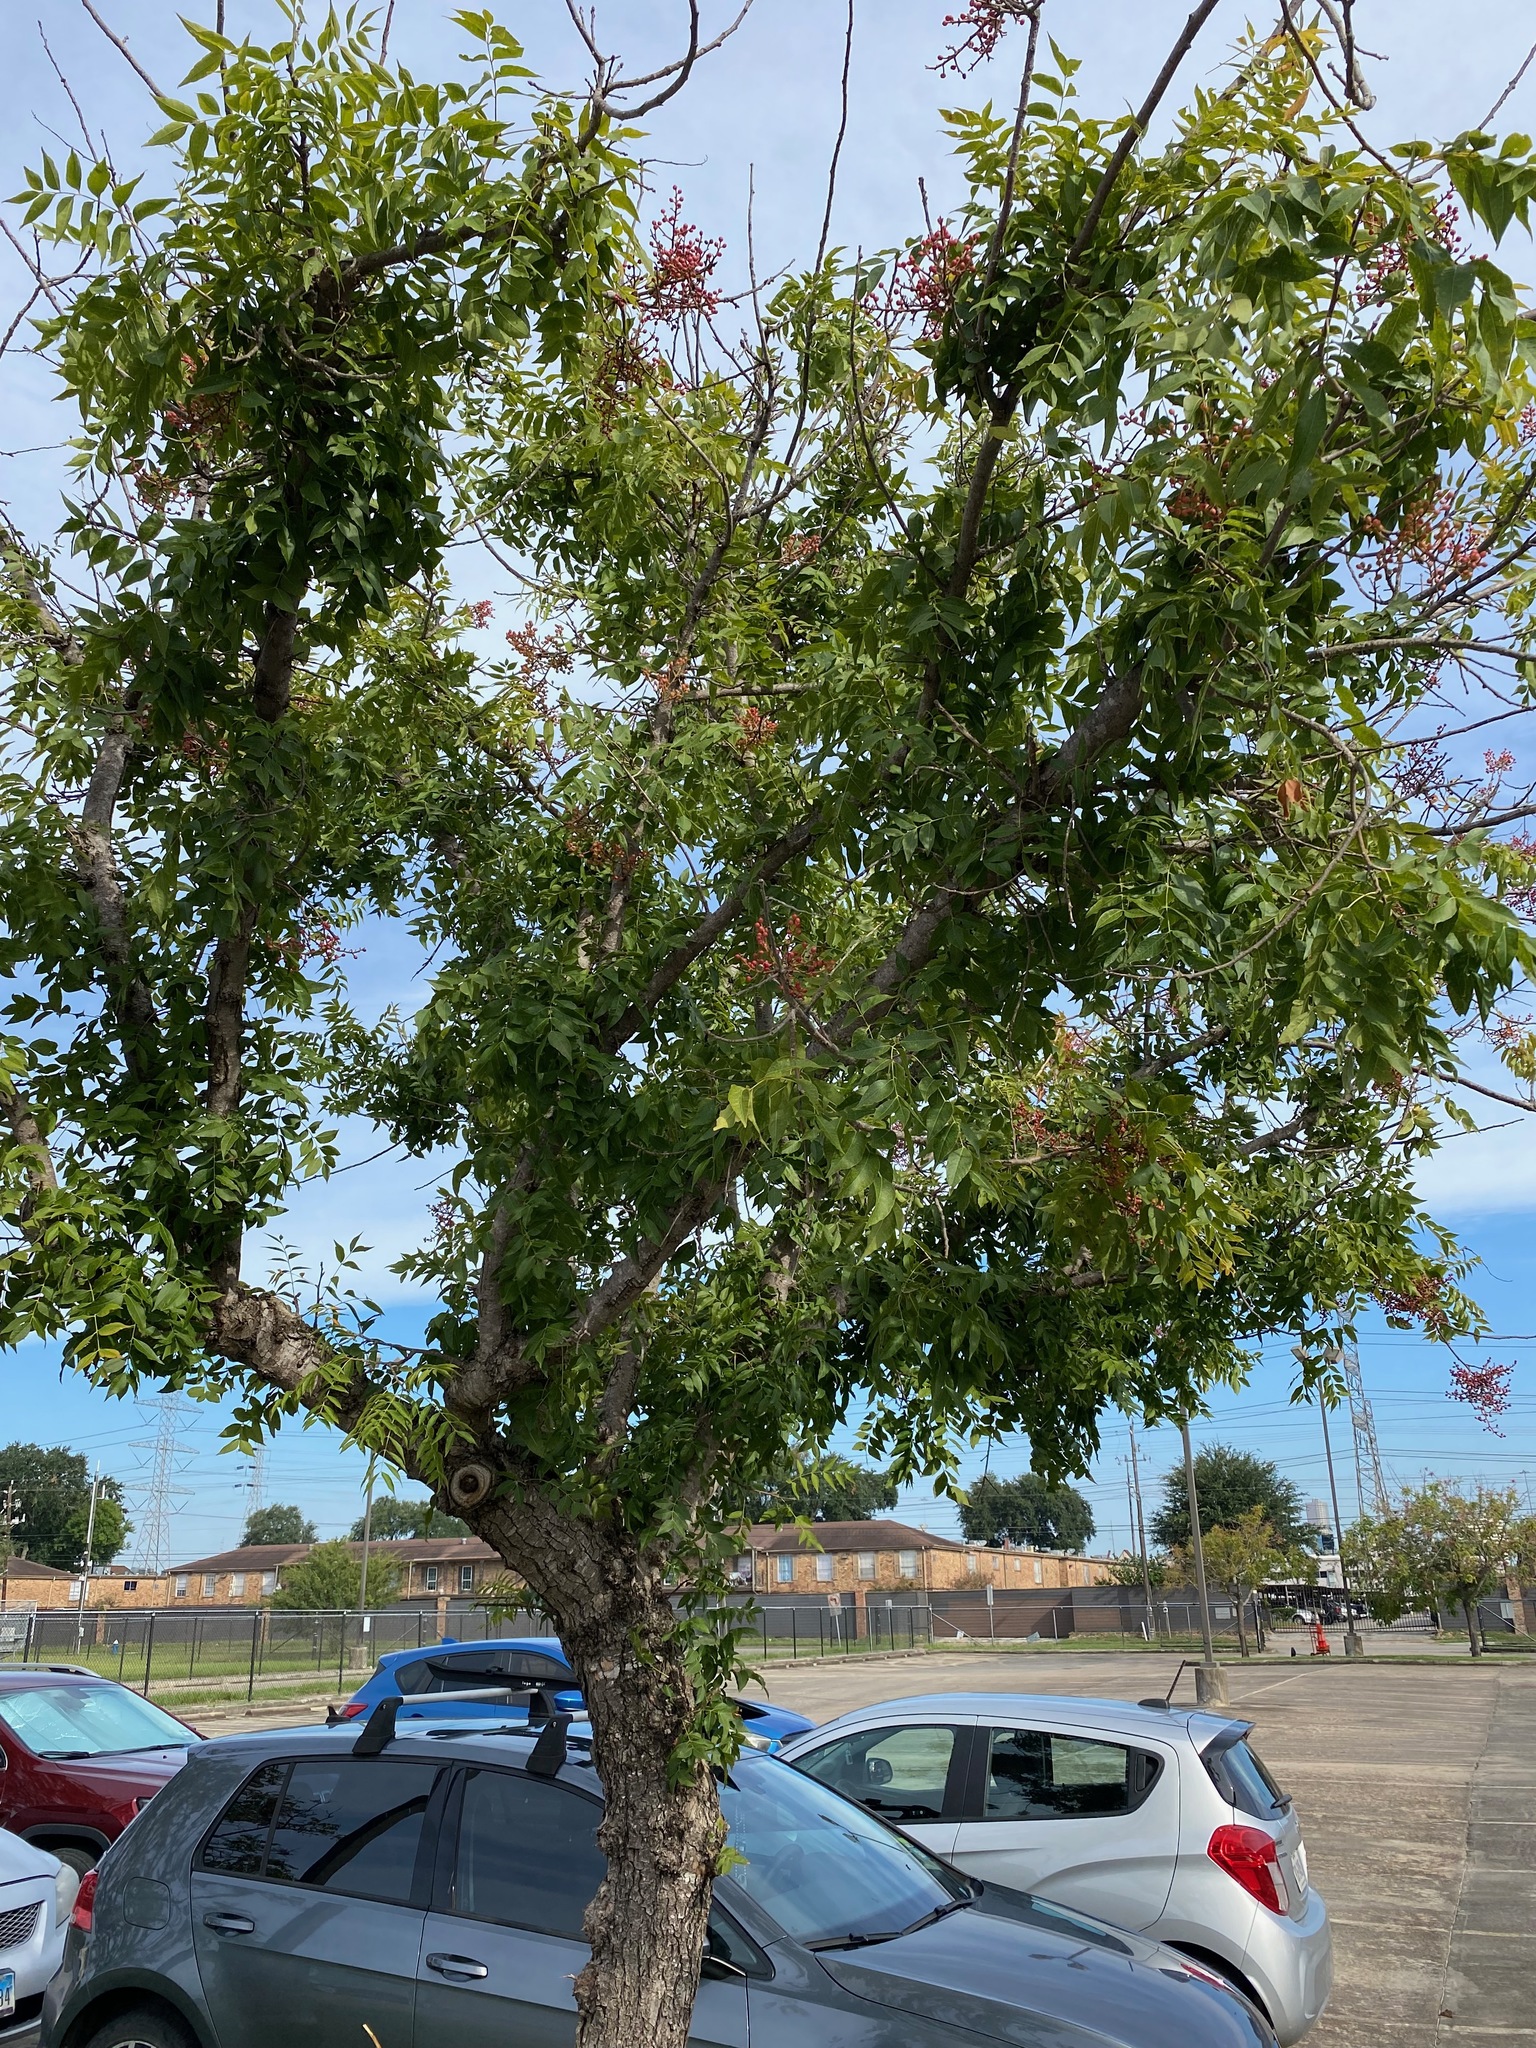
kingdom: Plantae
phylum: Tracheophyta
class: Magnoliopsida
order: Sapindales
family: Anacardiaceae
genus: Pistacia
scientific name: Pistacia chinensis
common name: Chinese pistache
